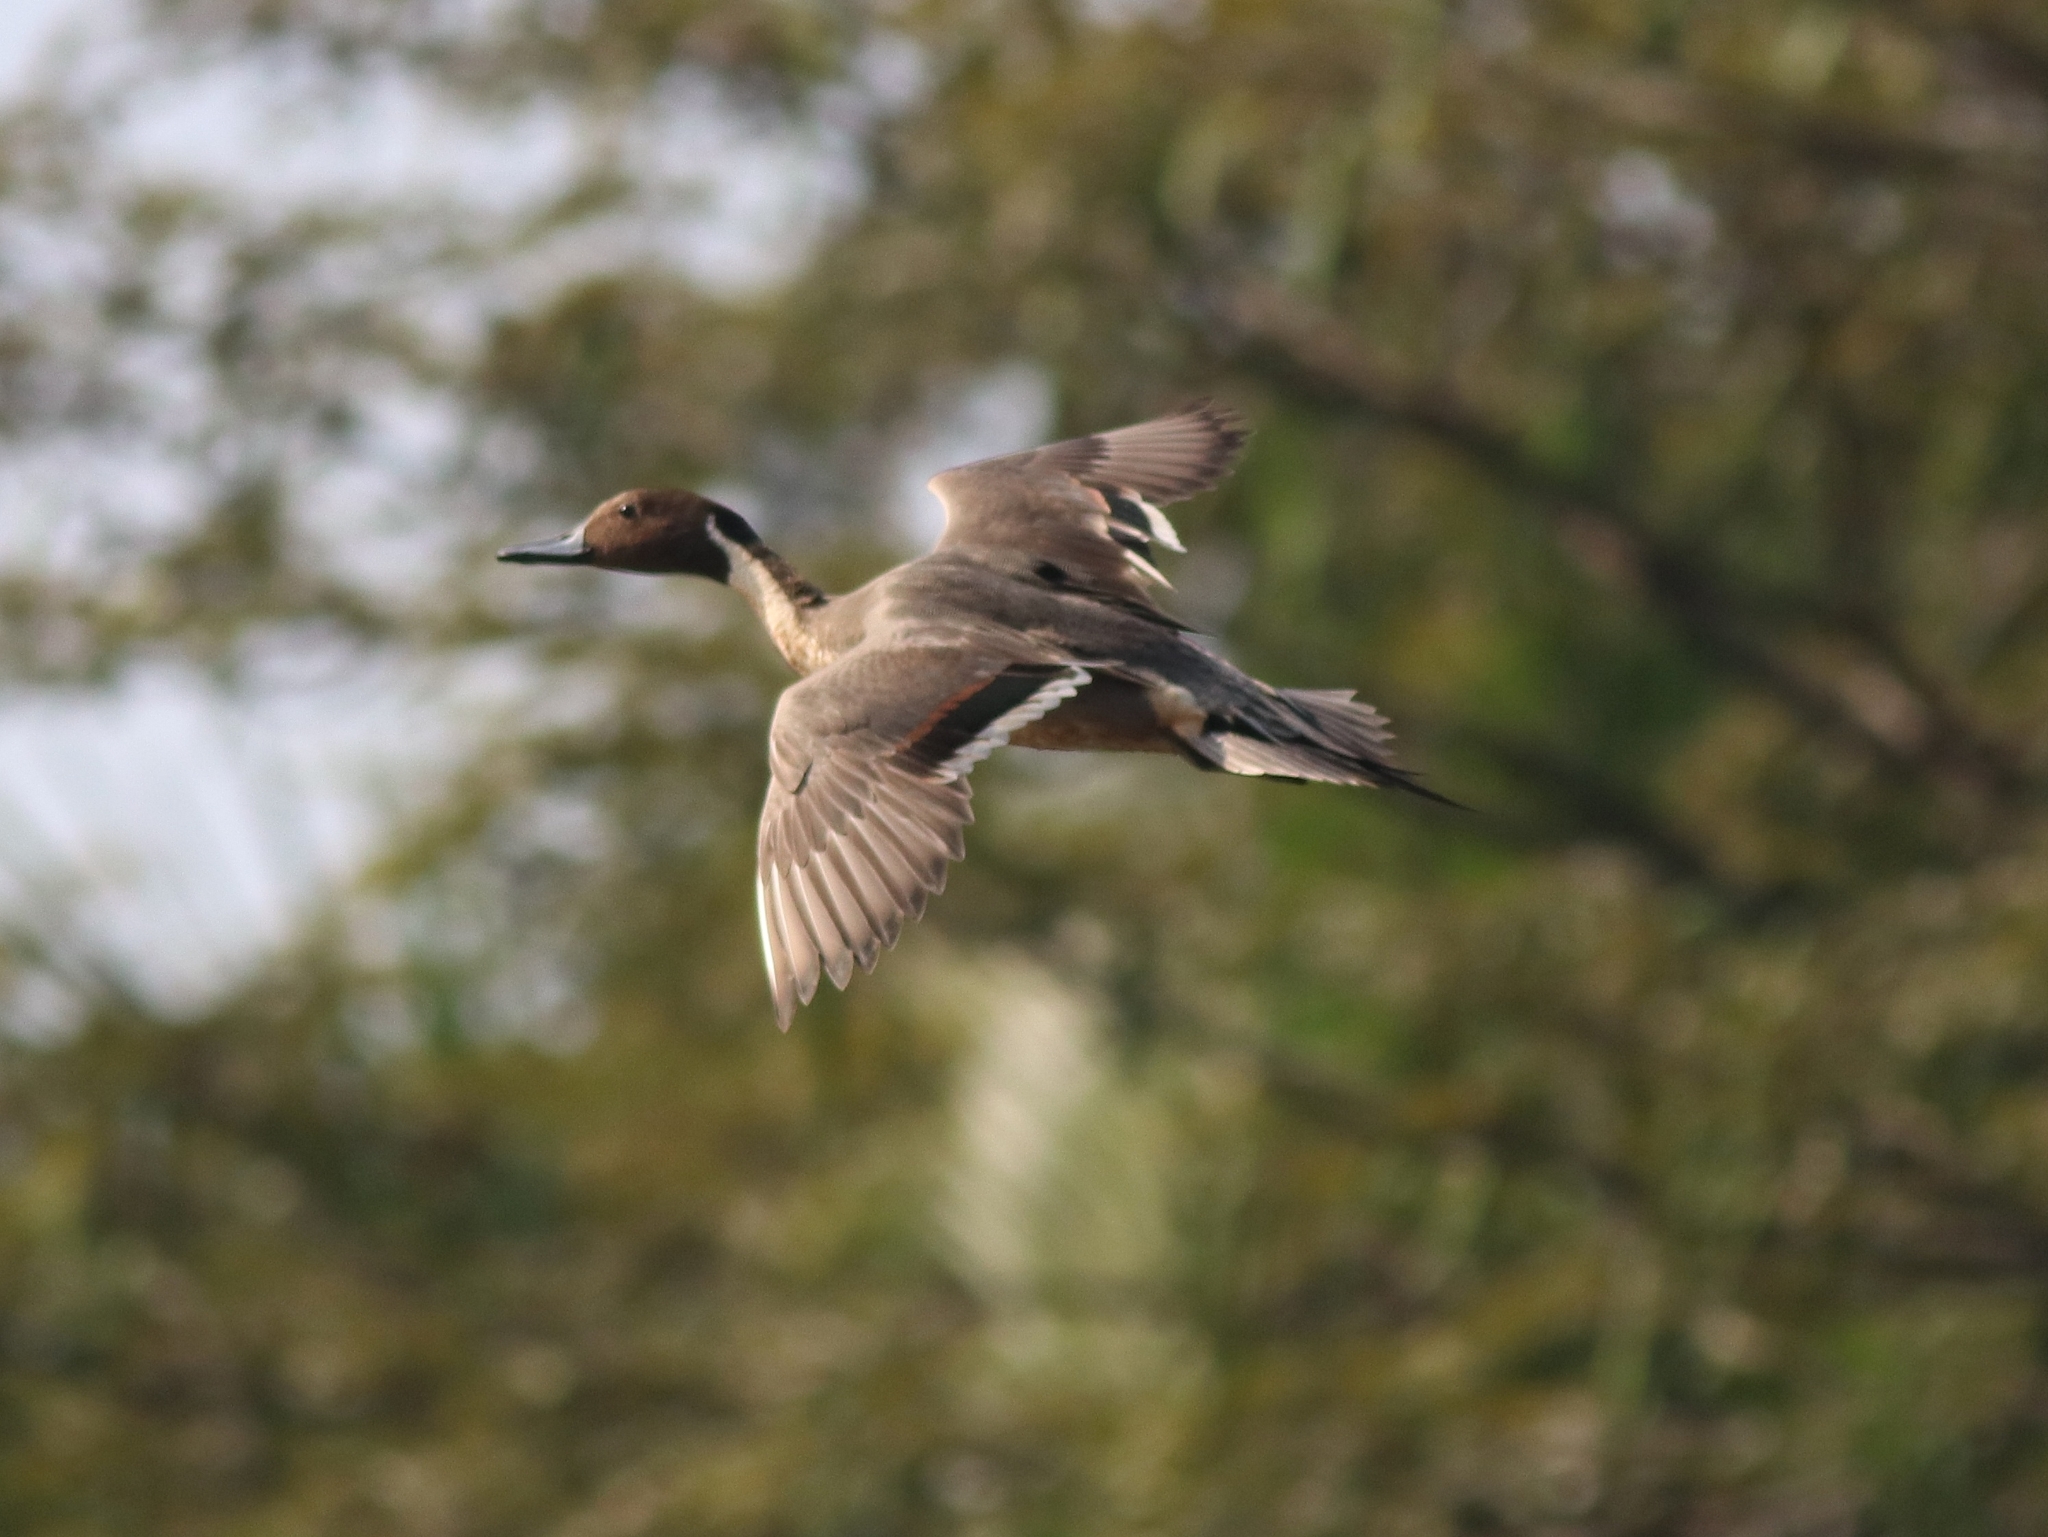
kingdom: Animalia
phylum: Chordata
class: Aves
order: Anseriformes
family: Anatidae
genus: Anas
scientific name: Anas acuta
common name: Northern pintail
